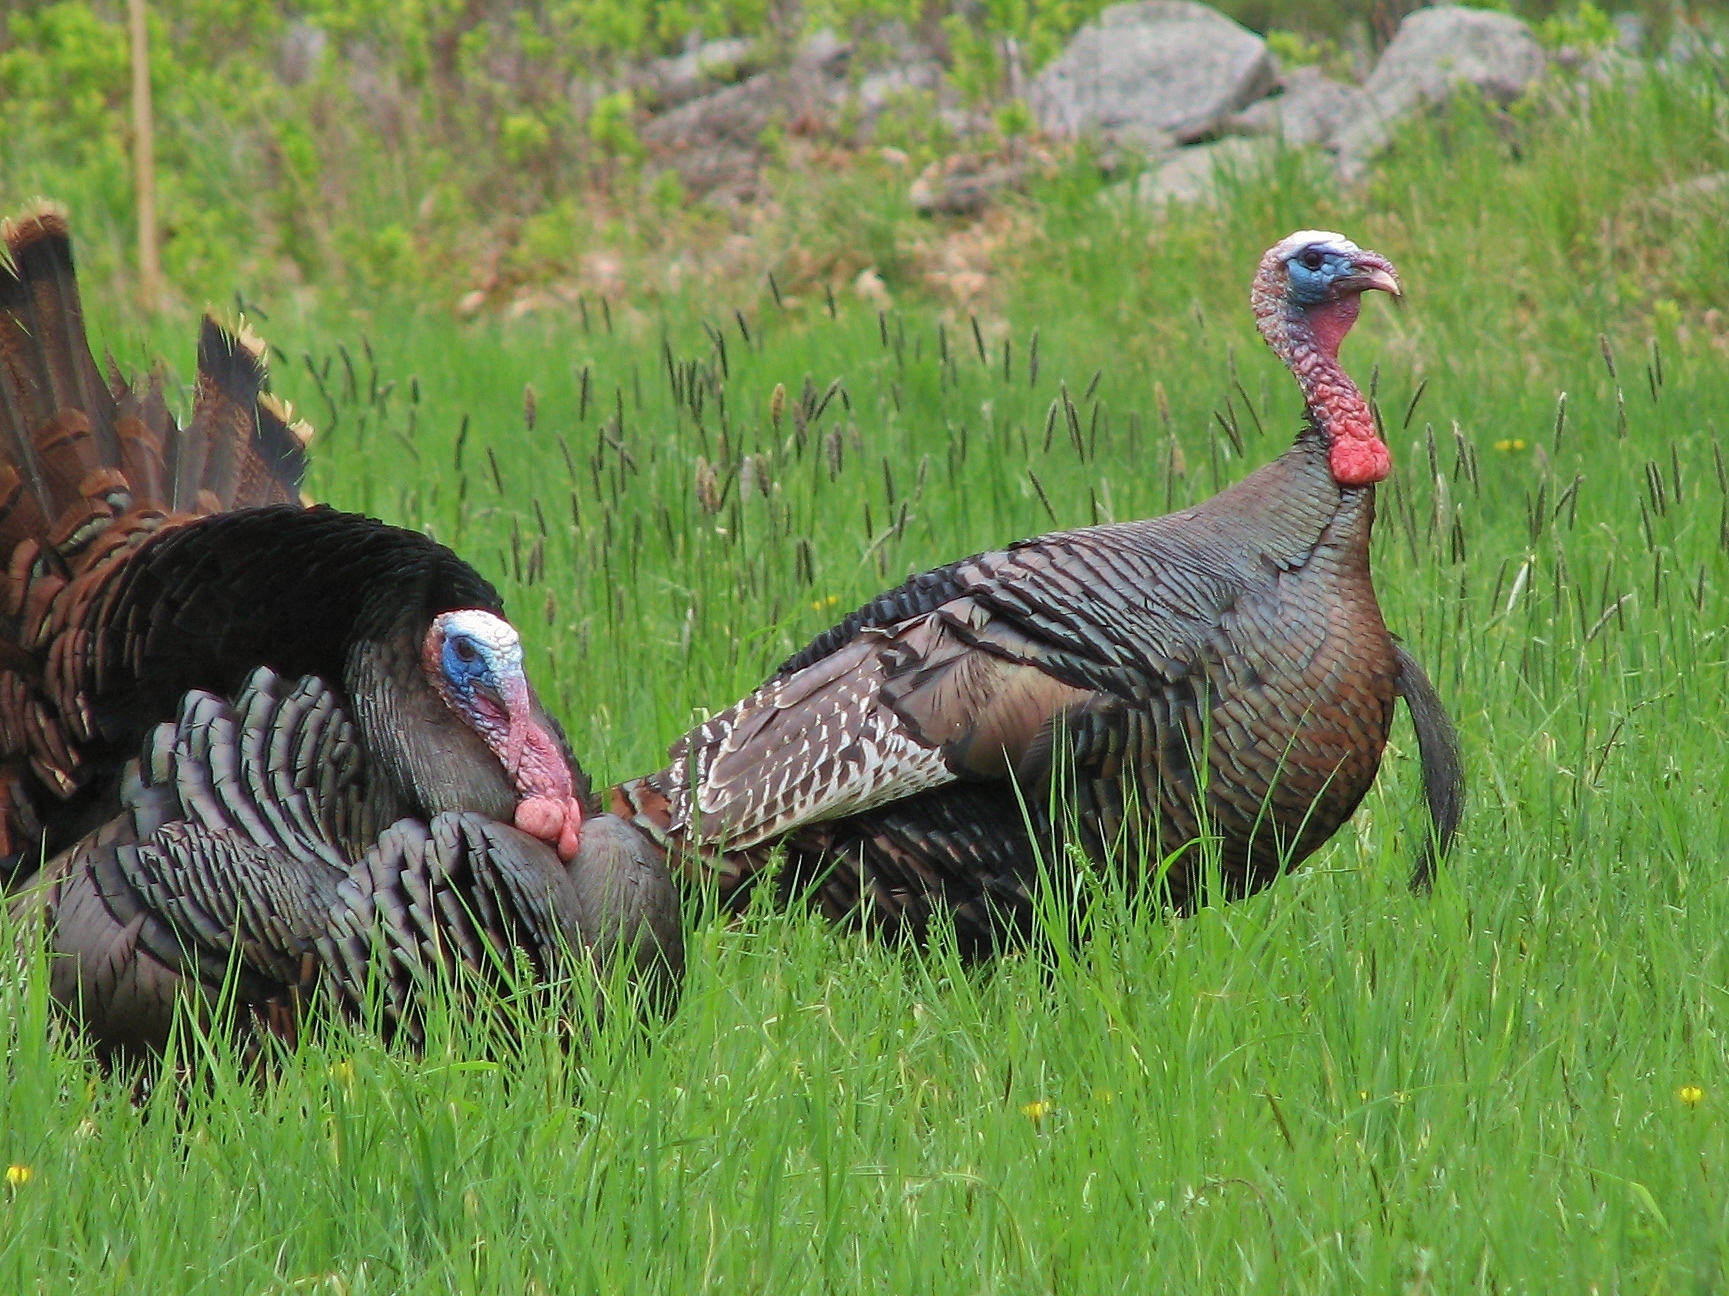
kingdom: Animalia
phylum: Chordata
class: Aves
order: Galliformes
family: Phasianidae
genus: Meleagris
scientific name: Meleagris gallopavo
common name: Wild turkey
